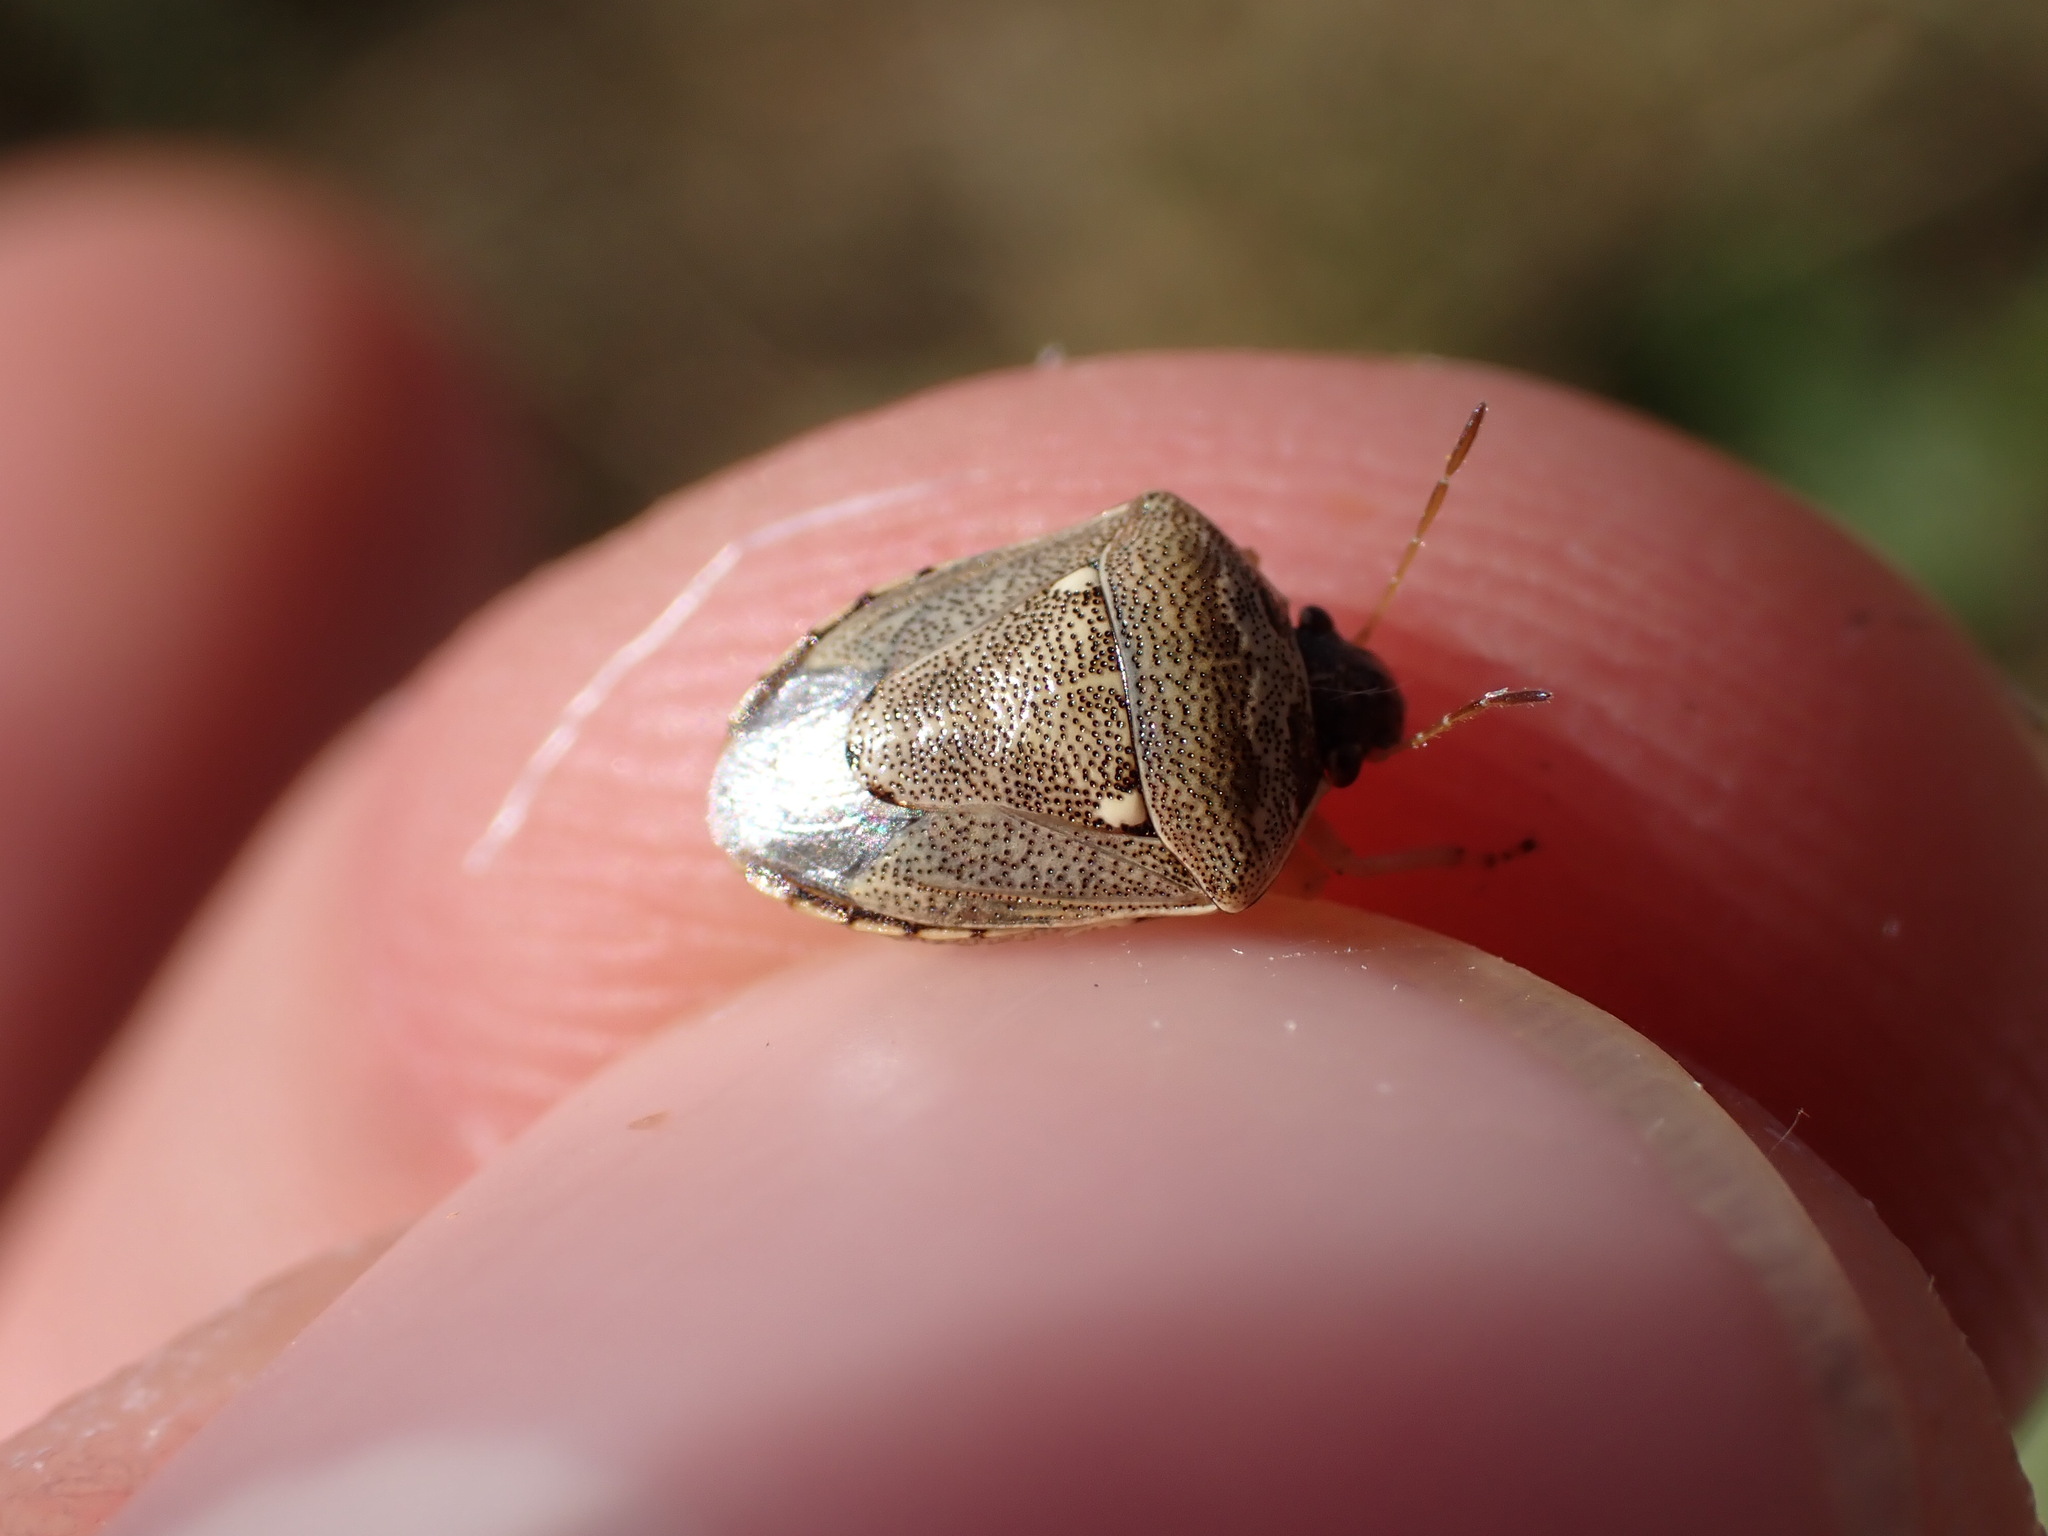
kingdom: Animalia
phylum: Arthropoda
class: Insecta
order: Hemiptera
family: Pentatomidae
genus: Eysarcoris
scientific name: Eysarcoris ventralis
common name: White-spotted stink bug
